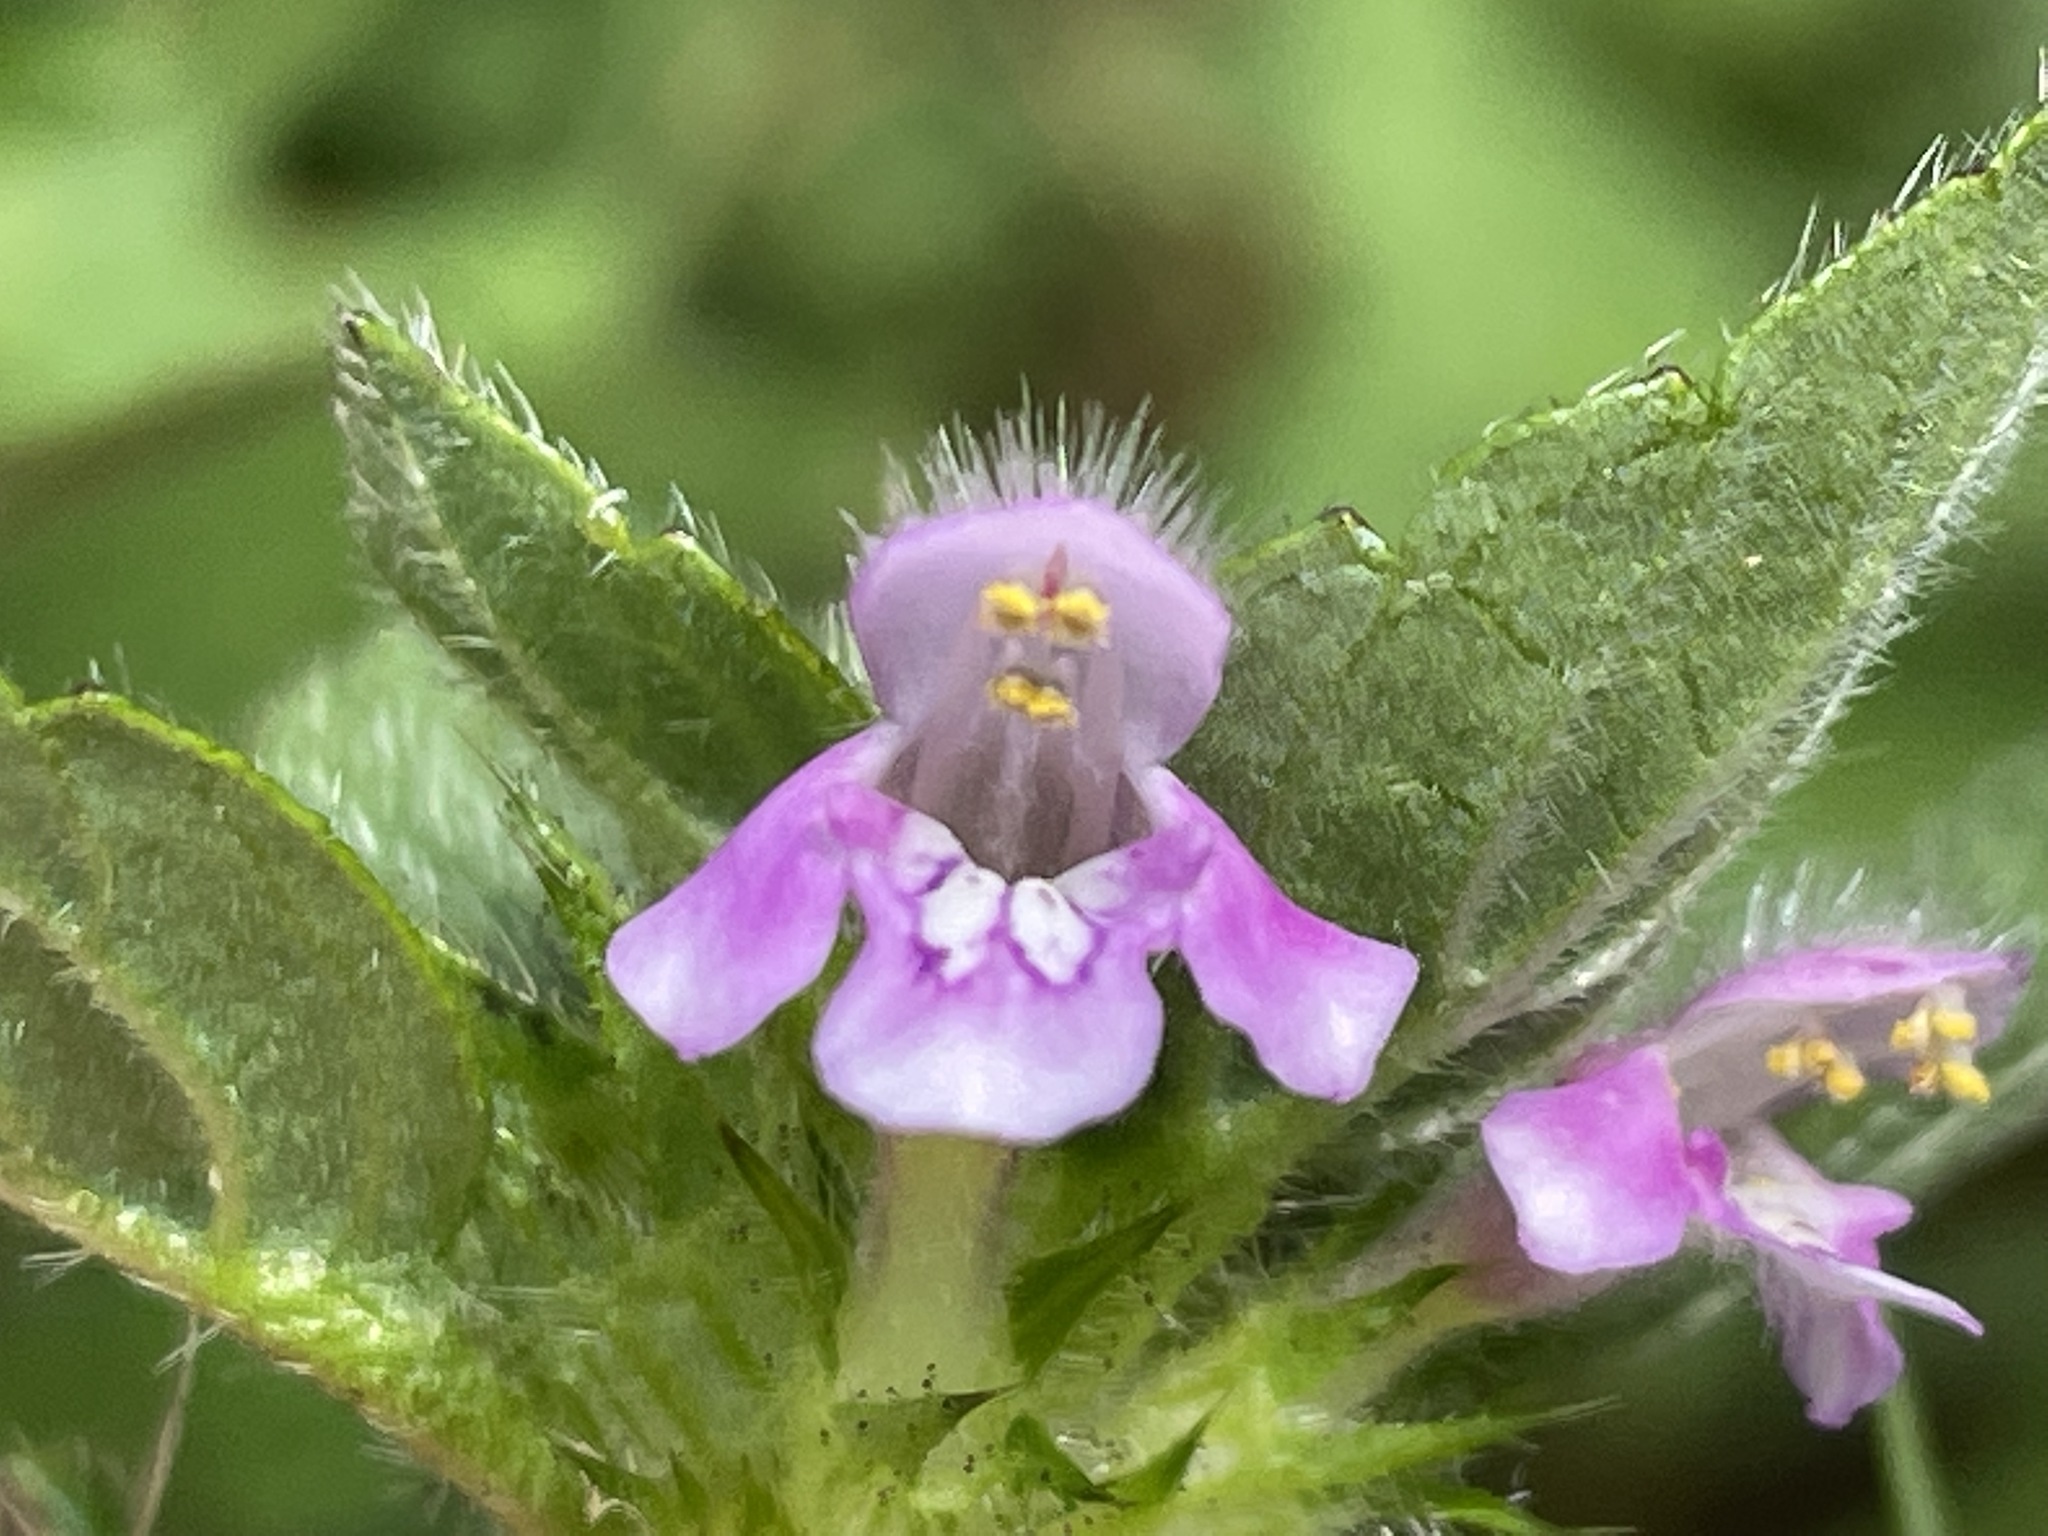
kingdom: Plantae
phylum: Tracheophyta
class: Magnoliopsida
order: Lamiales
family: Lamiaceae
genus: Galeopsis
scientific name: Galeopsis tetrahit
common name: Common hemp-nettle
